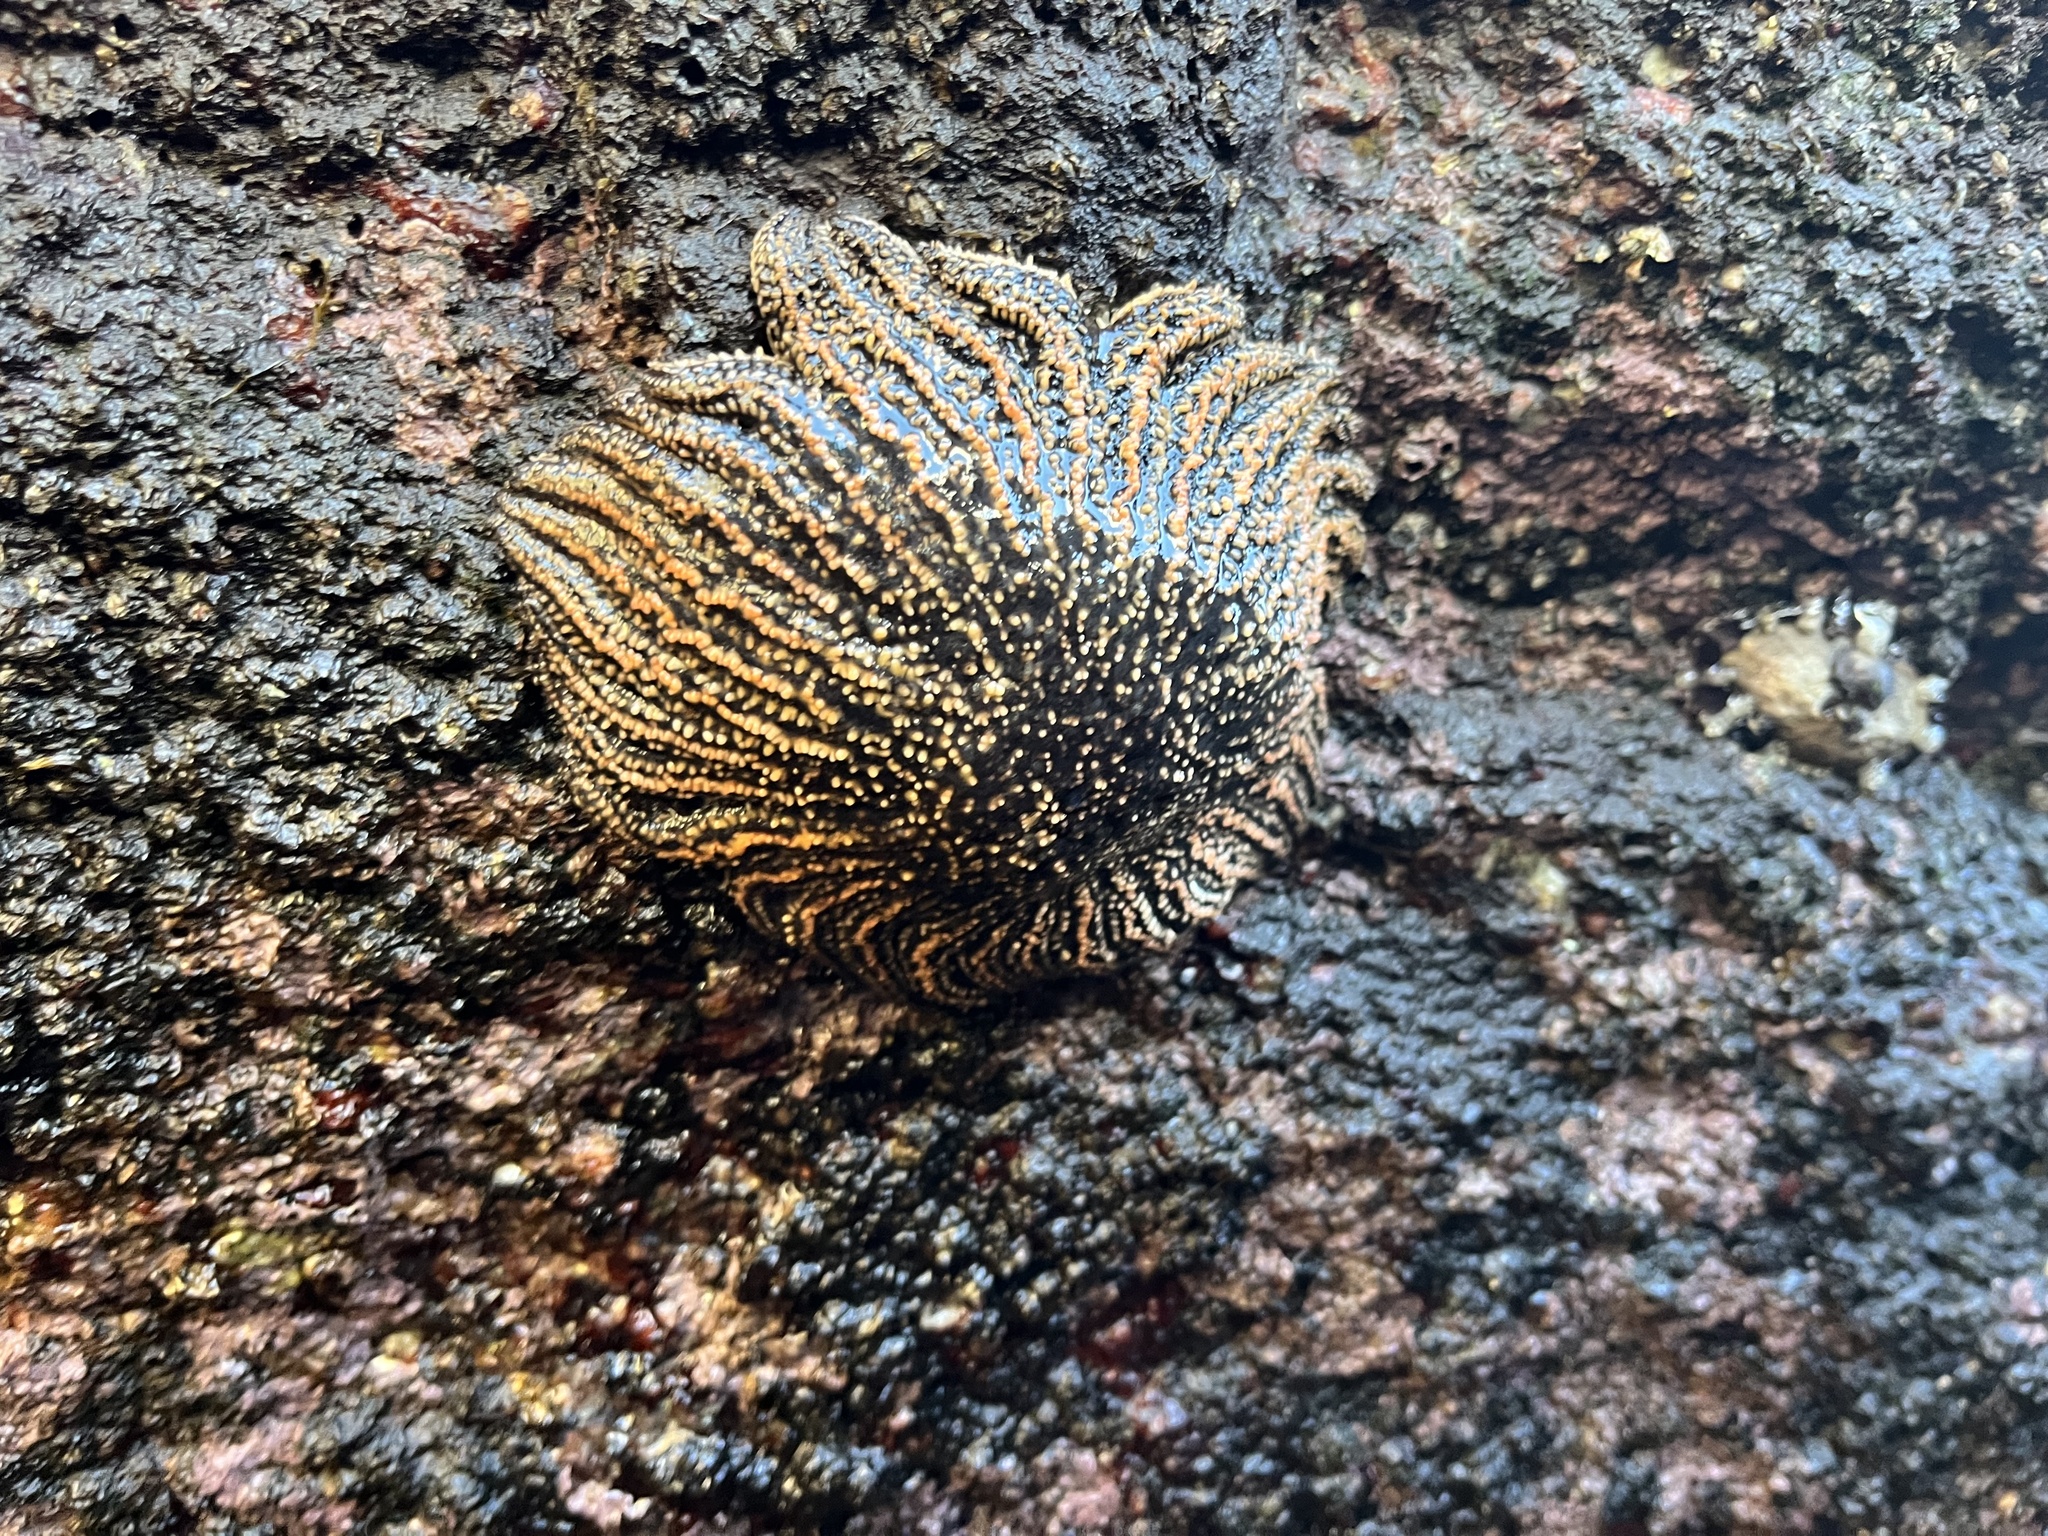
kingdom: Animalia
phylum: Echinodermata
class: Asteroidea
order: Forcipulatida
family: Heliasteridae
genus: Heliaster
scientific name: Heliaster helianthus
